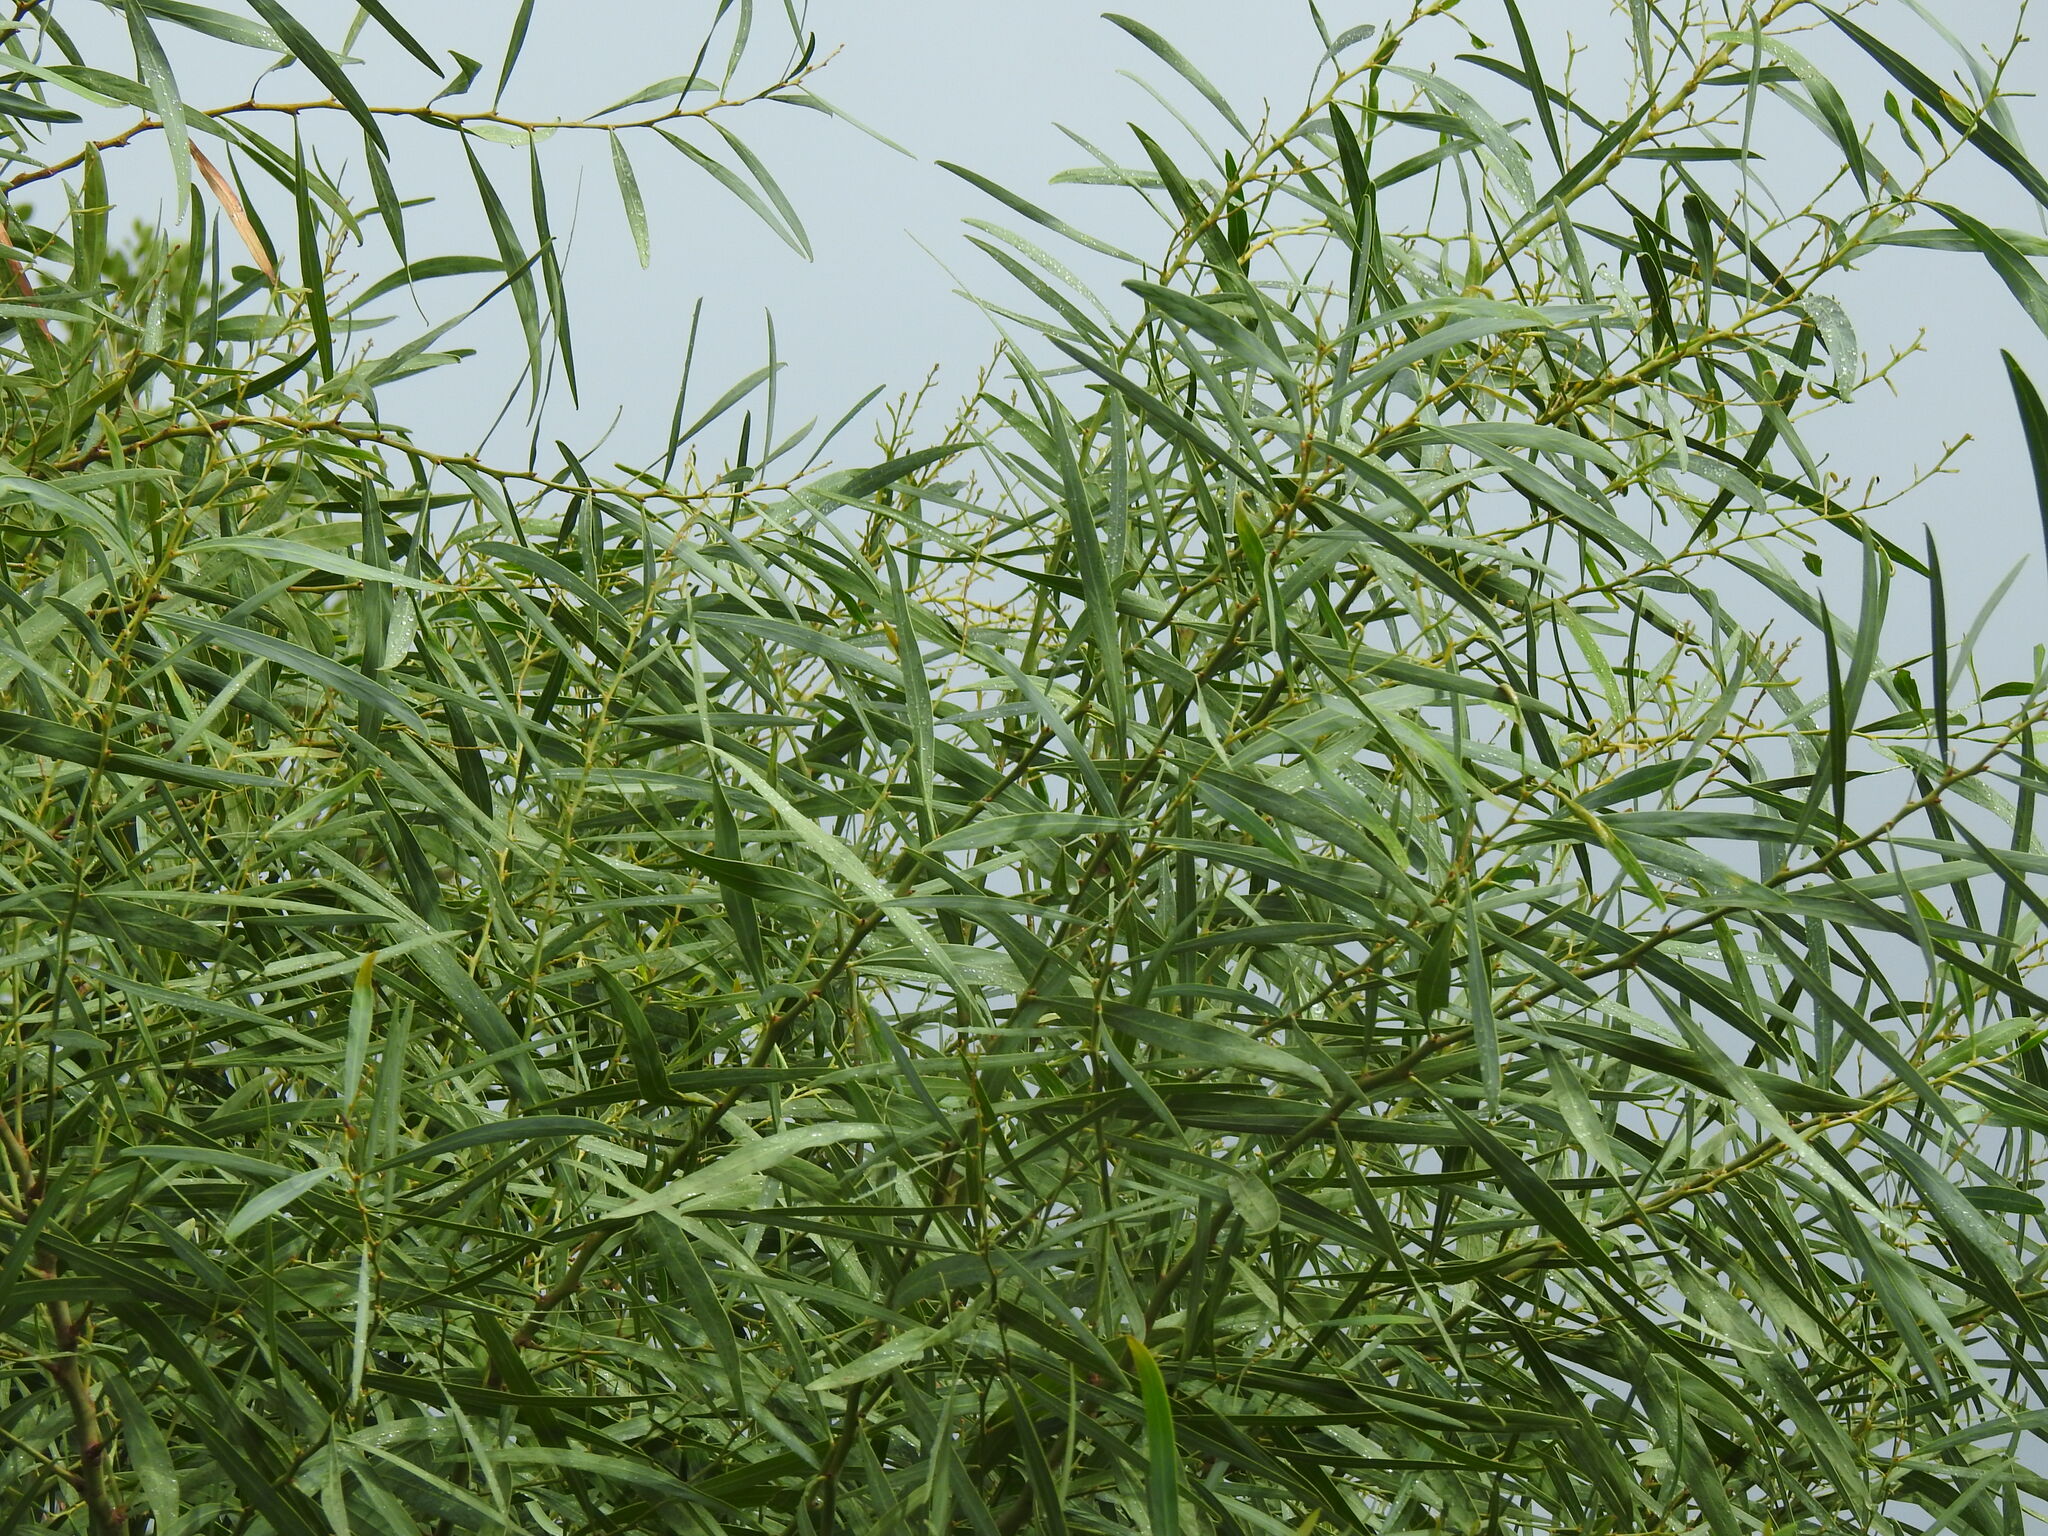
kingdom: Plantae
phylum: Tracheophyta
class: Magnoliopsida
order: Fabales
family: Fabaceae
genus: Acacia
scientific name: Acacia saligna
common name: Orange wattle
